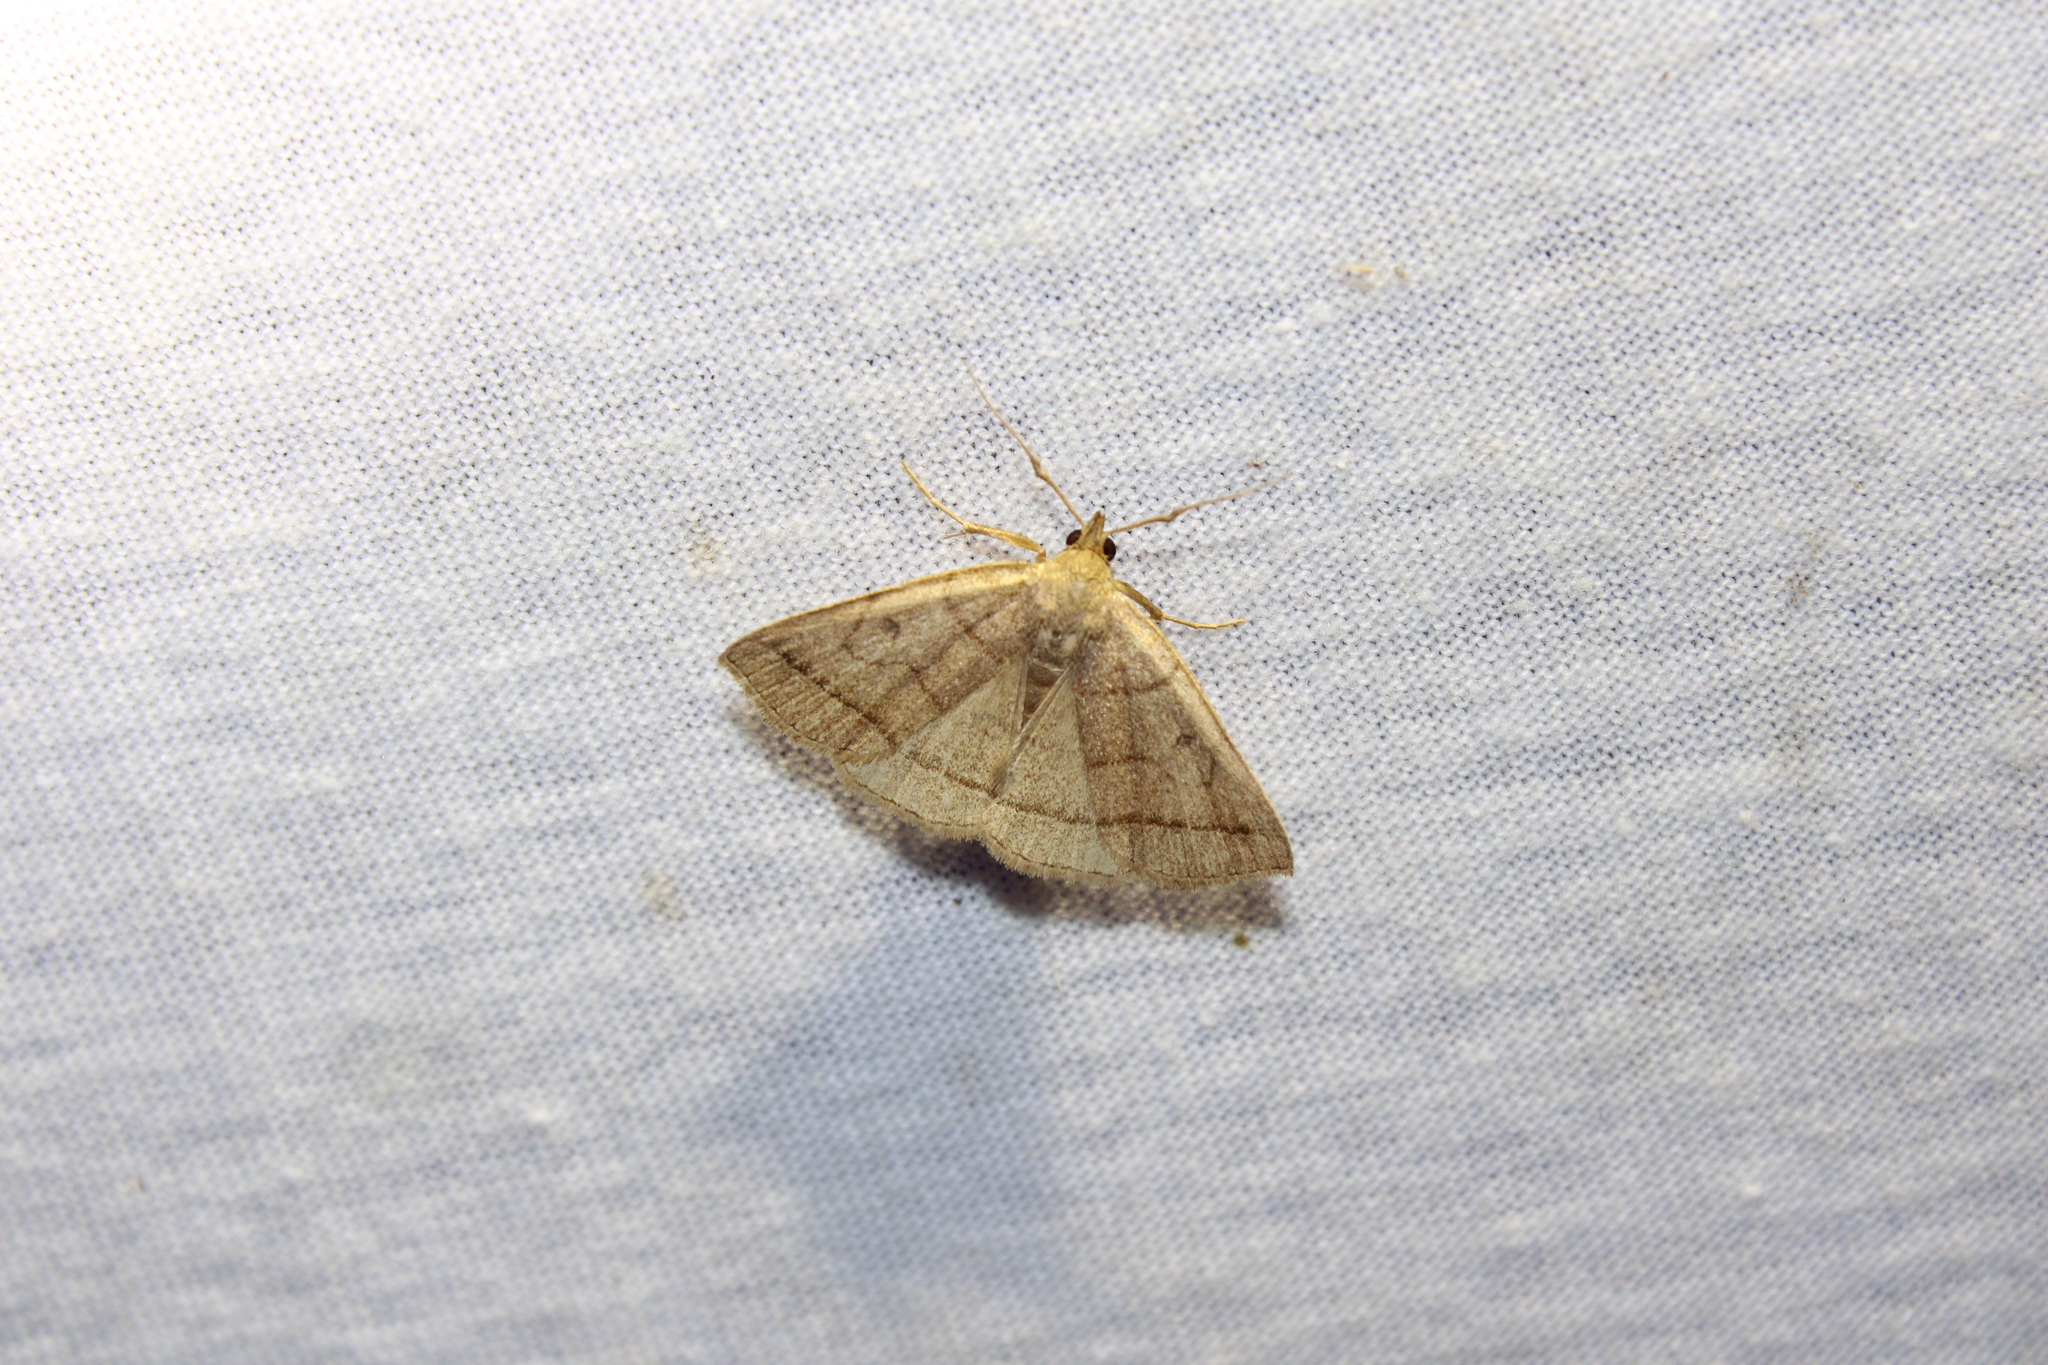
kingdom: Animalia
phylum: Arthropoda
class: Insecta
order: Lepidoptera
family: Erebidae
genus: Zanclognatha
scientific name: Zanclognatha cruralis
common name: Early fan-foot
